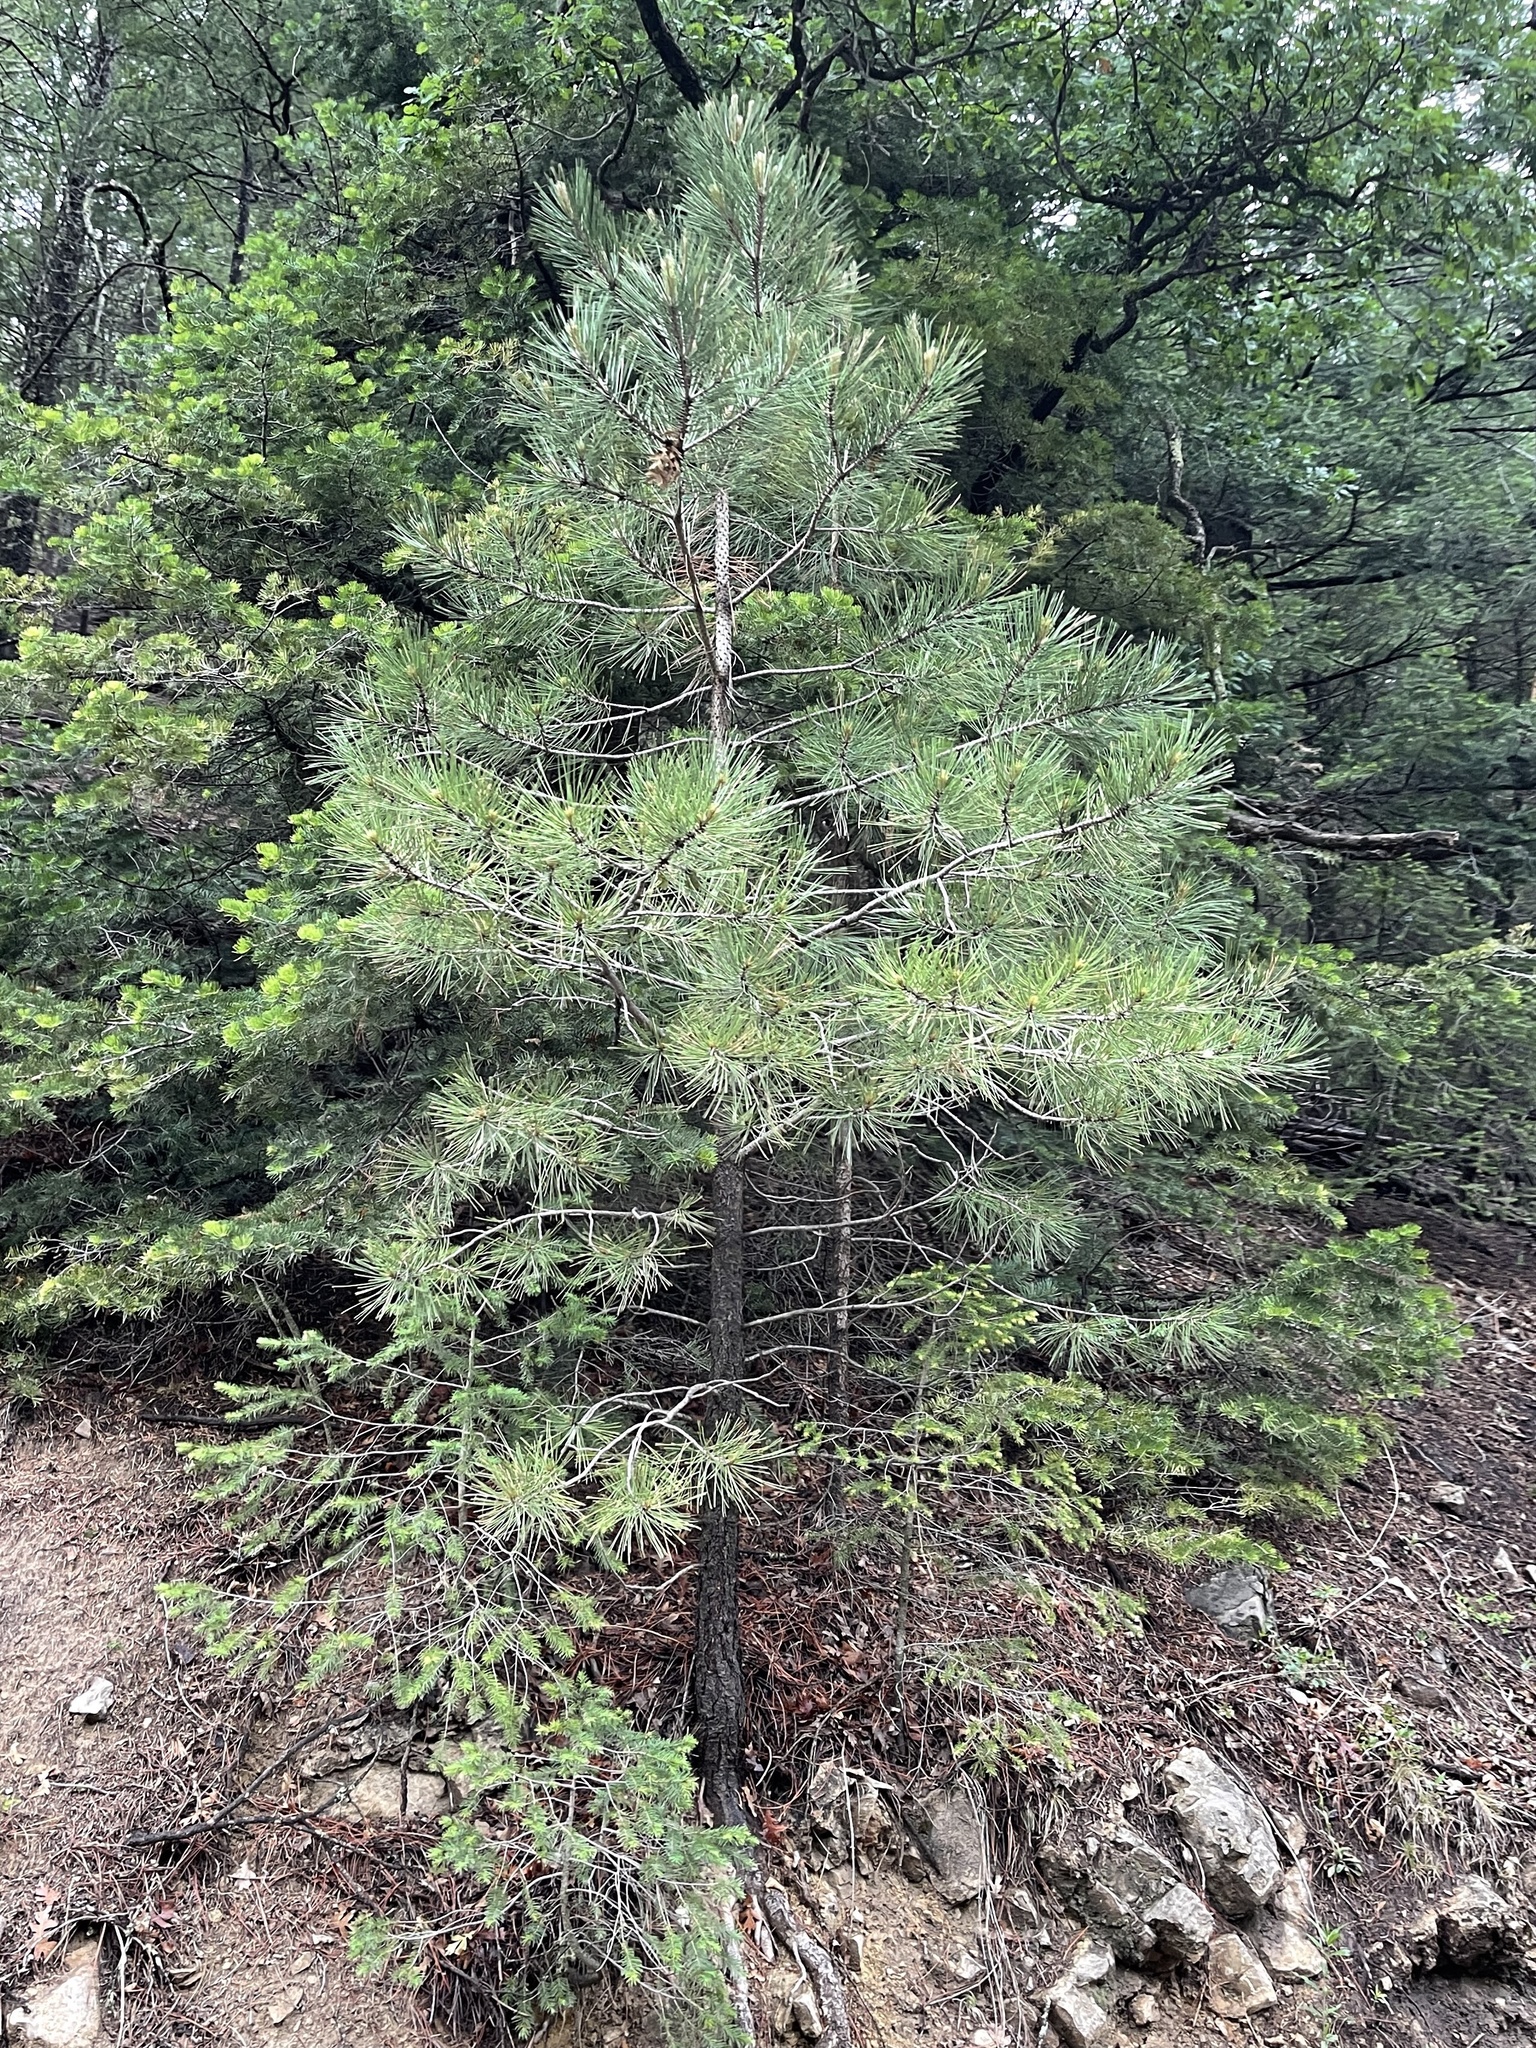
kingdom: Plantae
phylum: Tracheophyta
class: Pinopsida
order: Pinales
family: Pinaceae
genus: Pinus
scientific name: Pinus ponderosa
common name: Western yellow-pine
